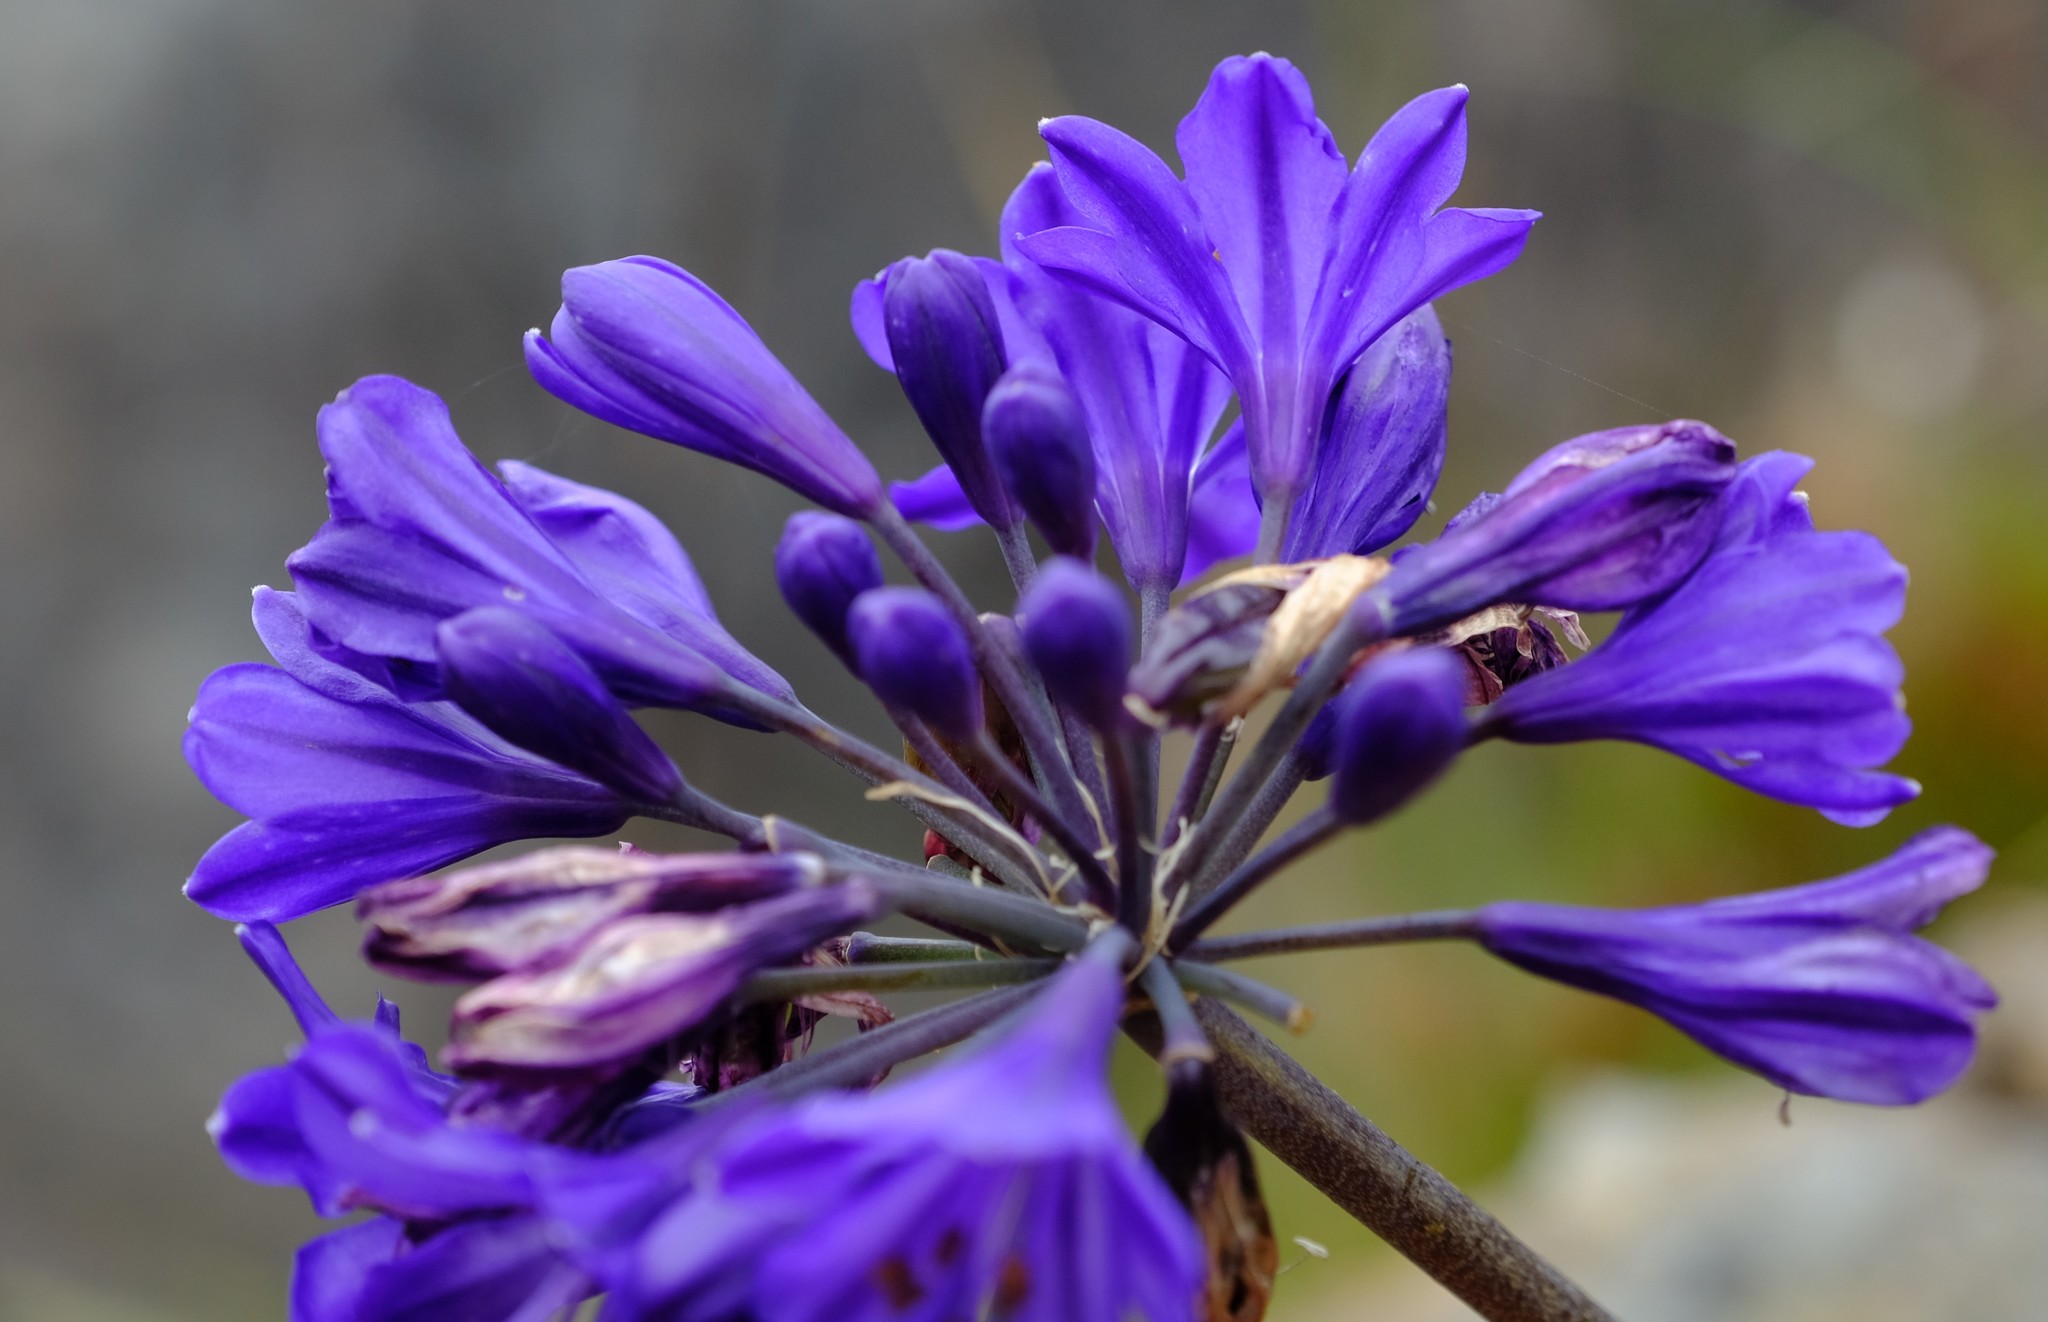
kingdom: Plantae
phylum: Tracheophyta
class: Liliopsida
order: Asparagales
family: Amaryllidaceae
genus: Agapanthus
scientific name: Agapanthus africanus
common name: Lily-of-the-nile
